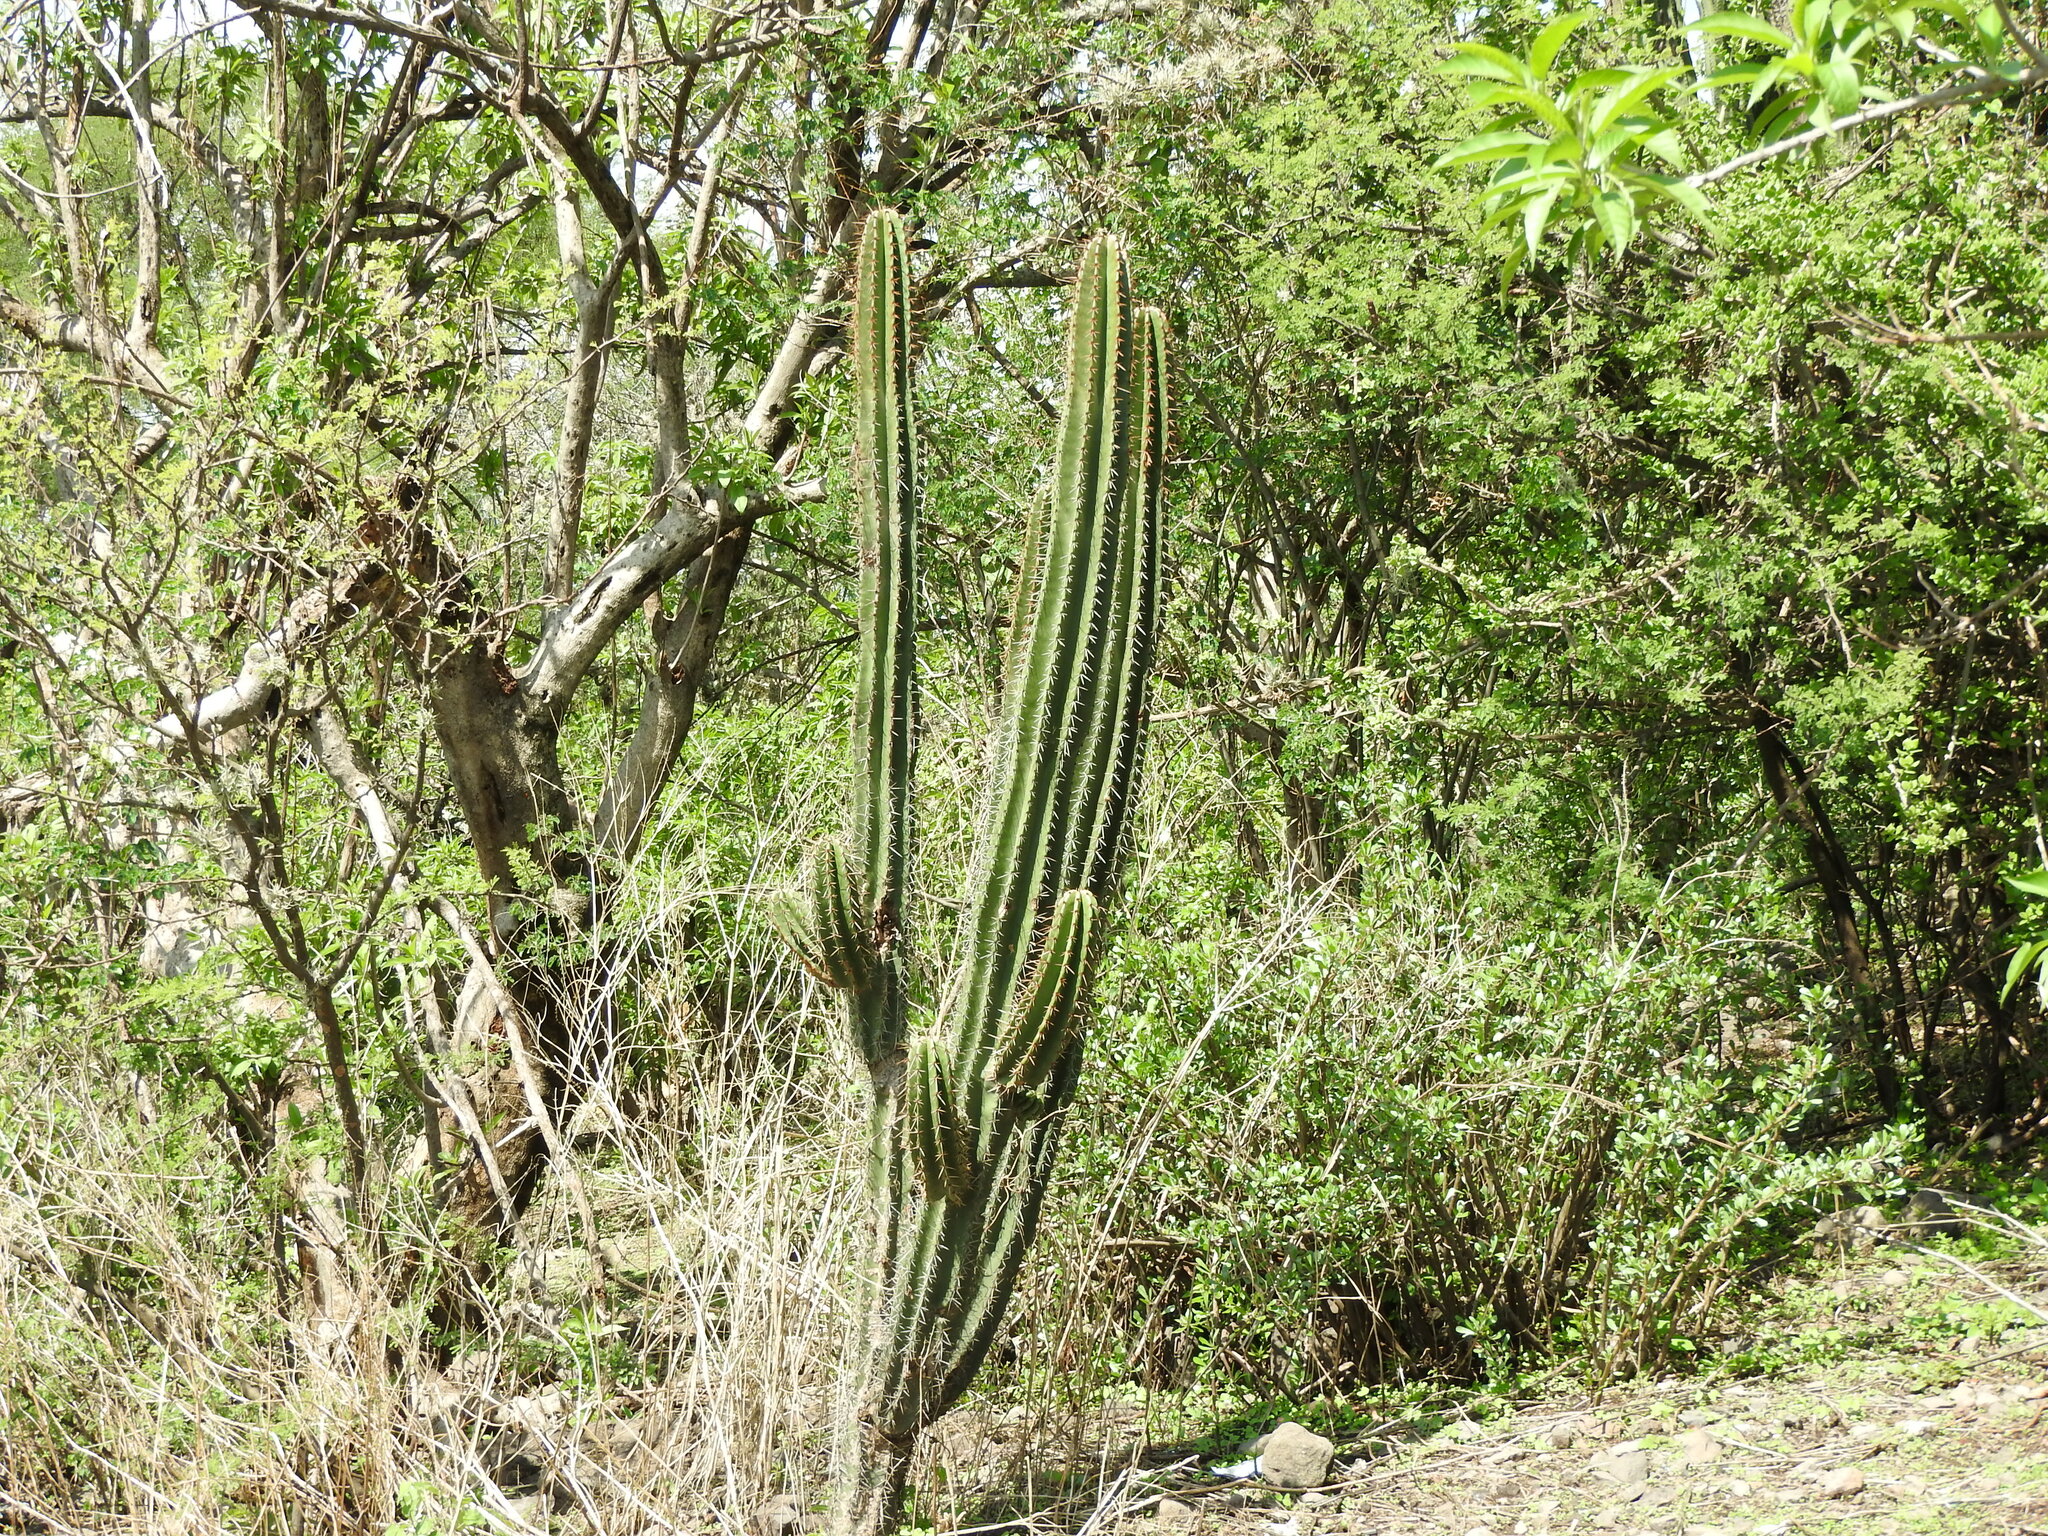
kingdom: Plantae
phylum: Tracheophyta
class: Magnoliopsida
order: Caryophyllales
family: Cactaceae
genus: Stenocereus
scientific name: Stenocereus queretaroensis
